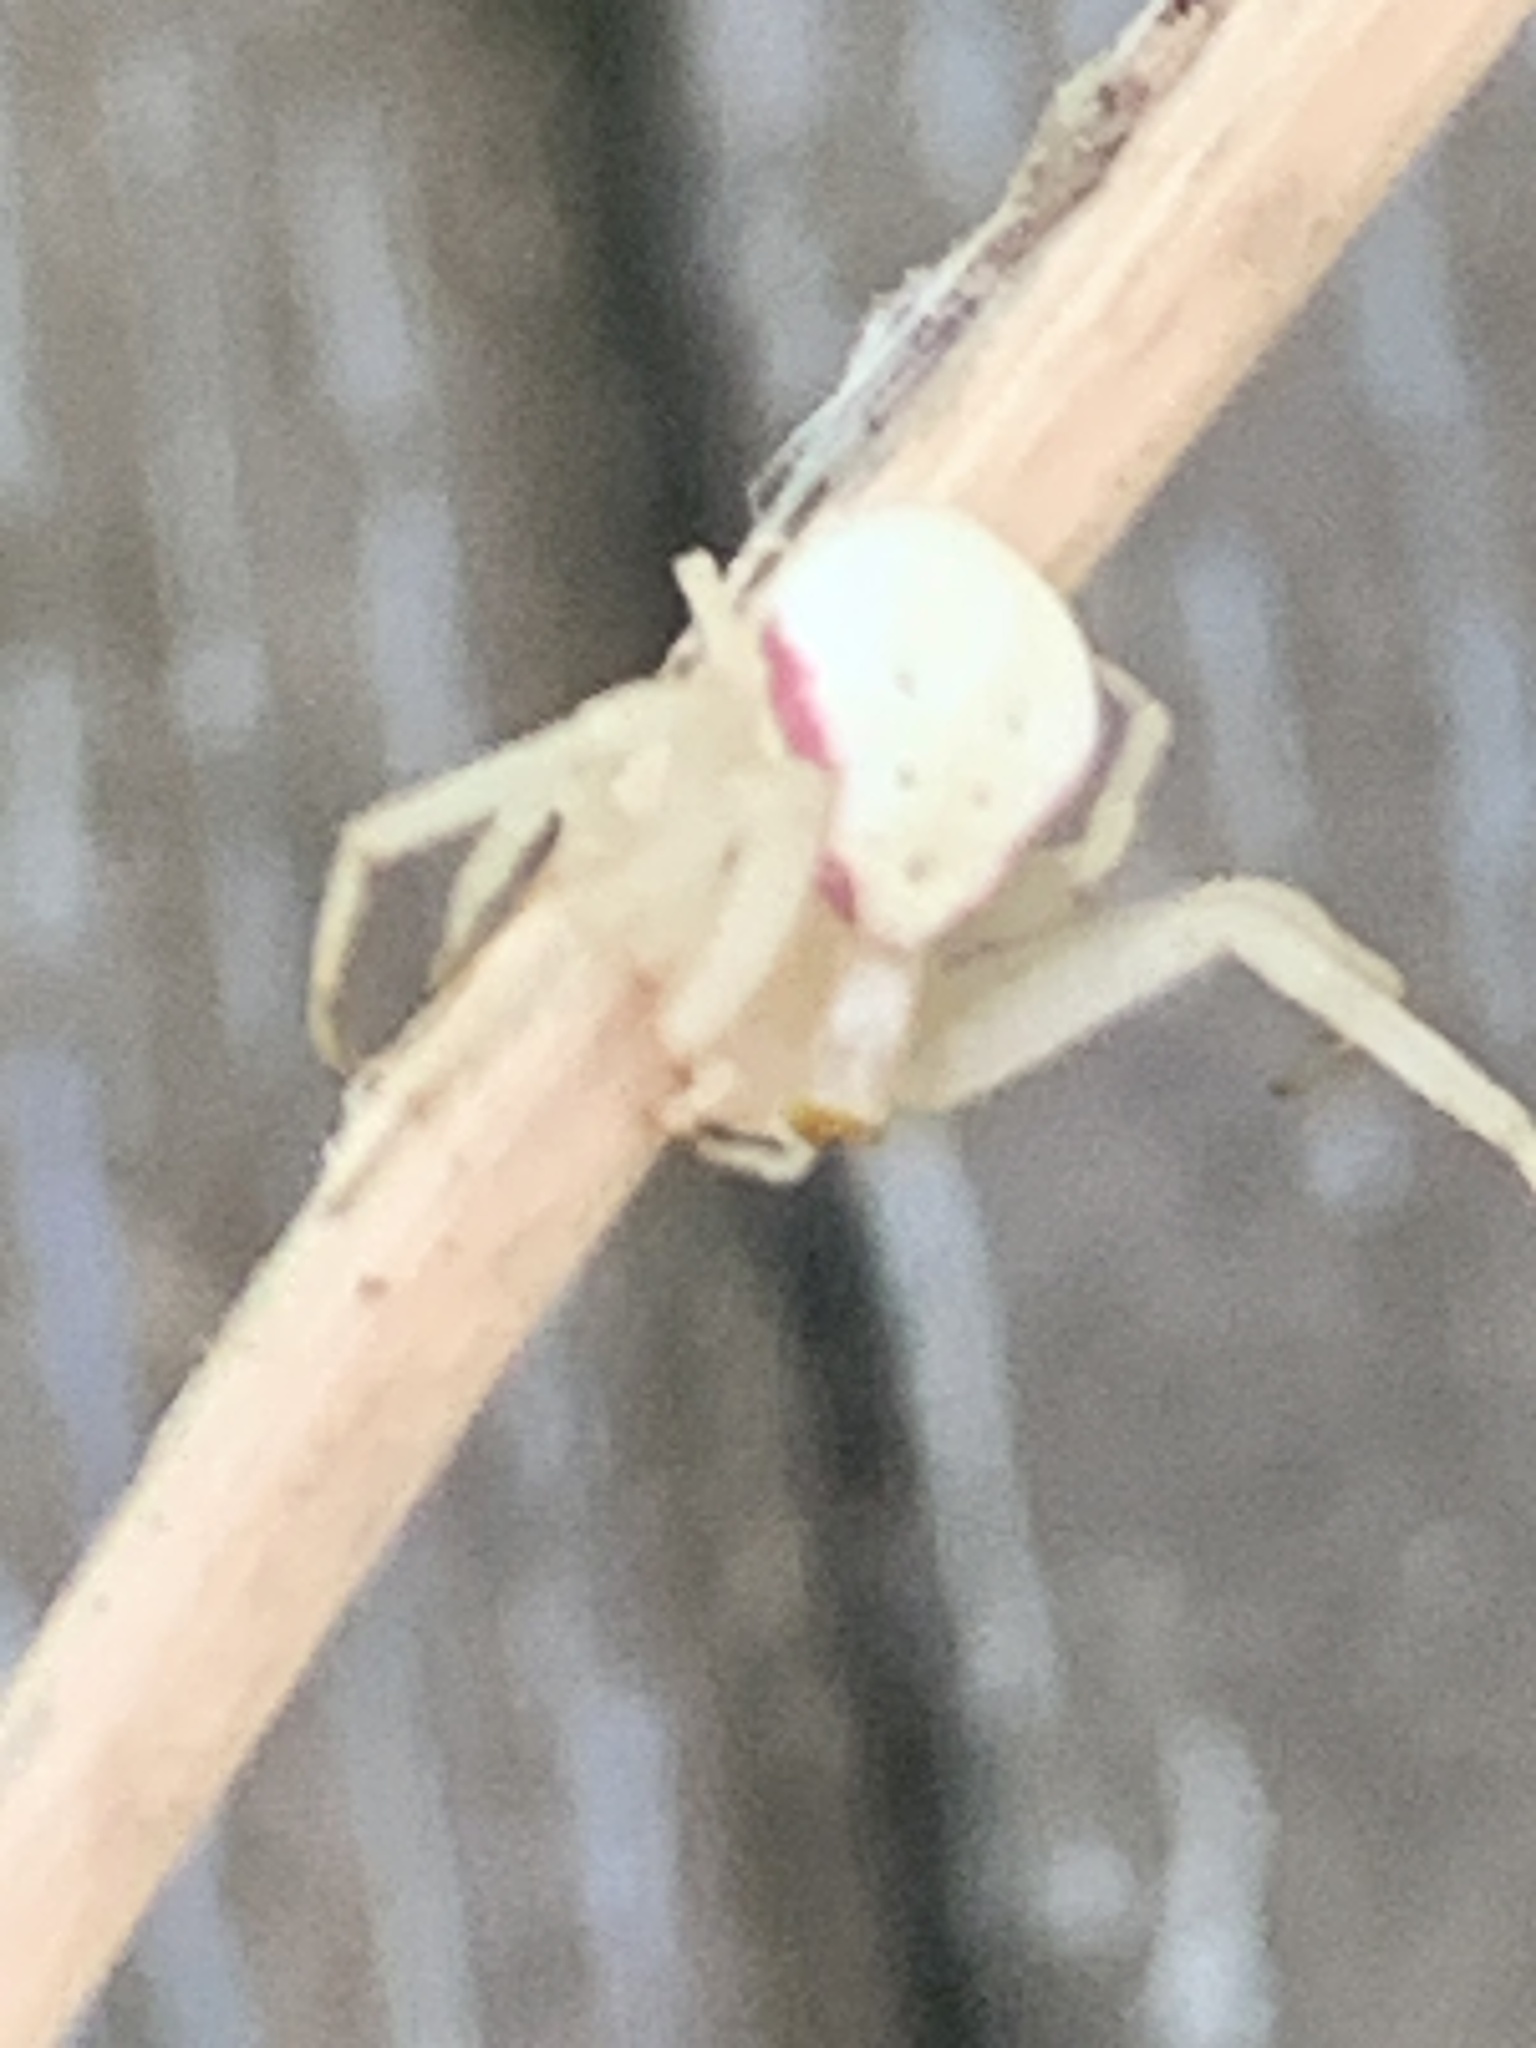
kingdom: Animalia
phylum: Arthropoda
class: Arachnida
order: Araneae
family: Thomisidae
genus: Misumena
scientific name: Misumena vatia
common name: Goldenrod crab spider
